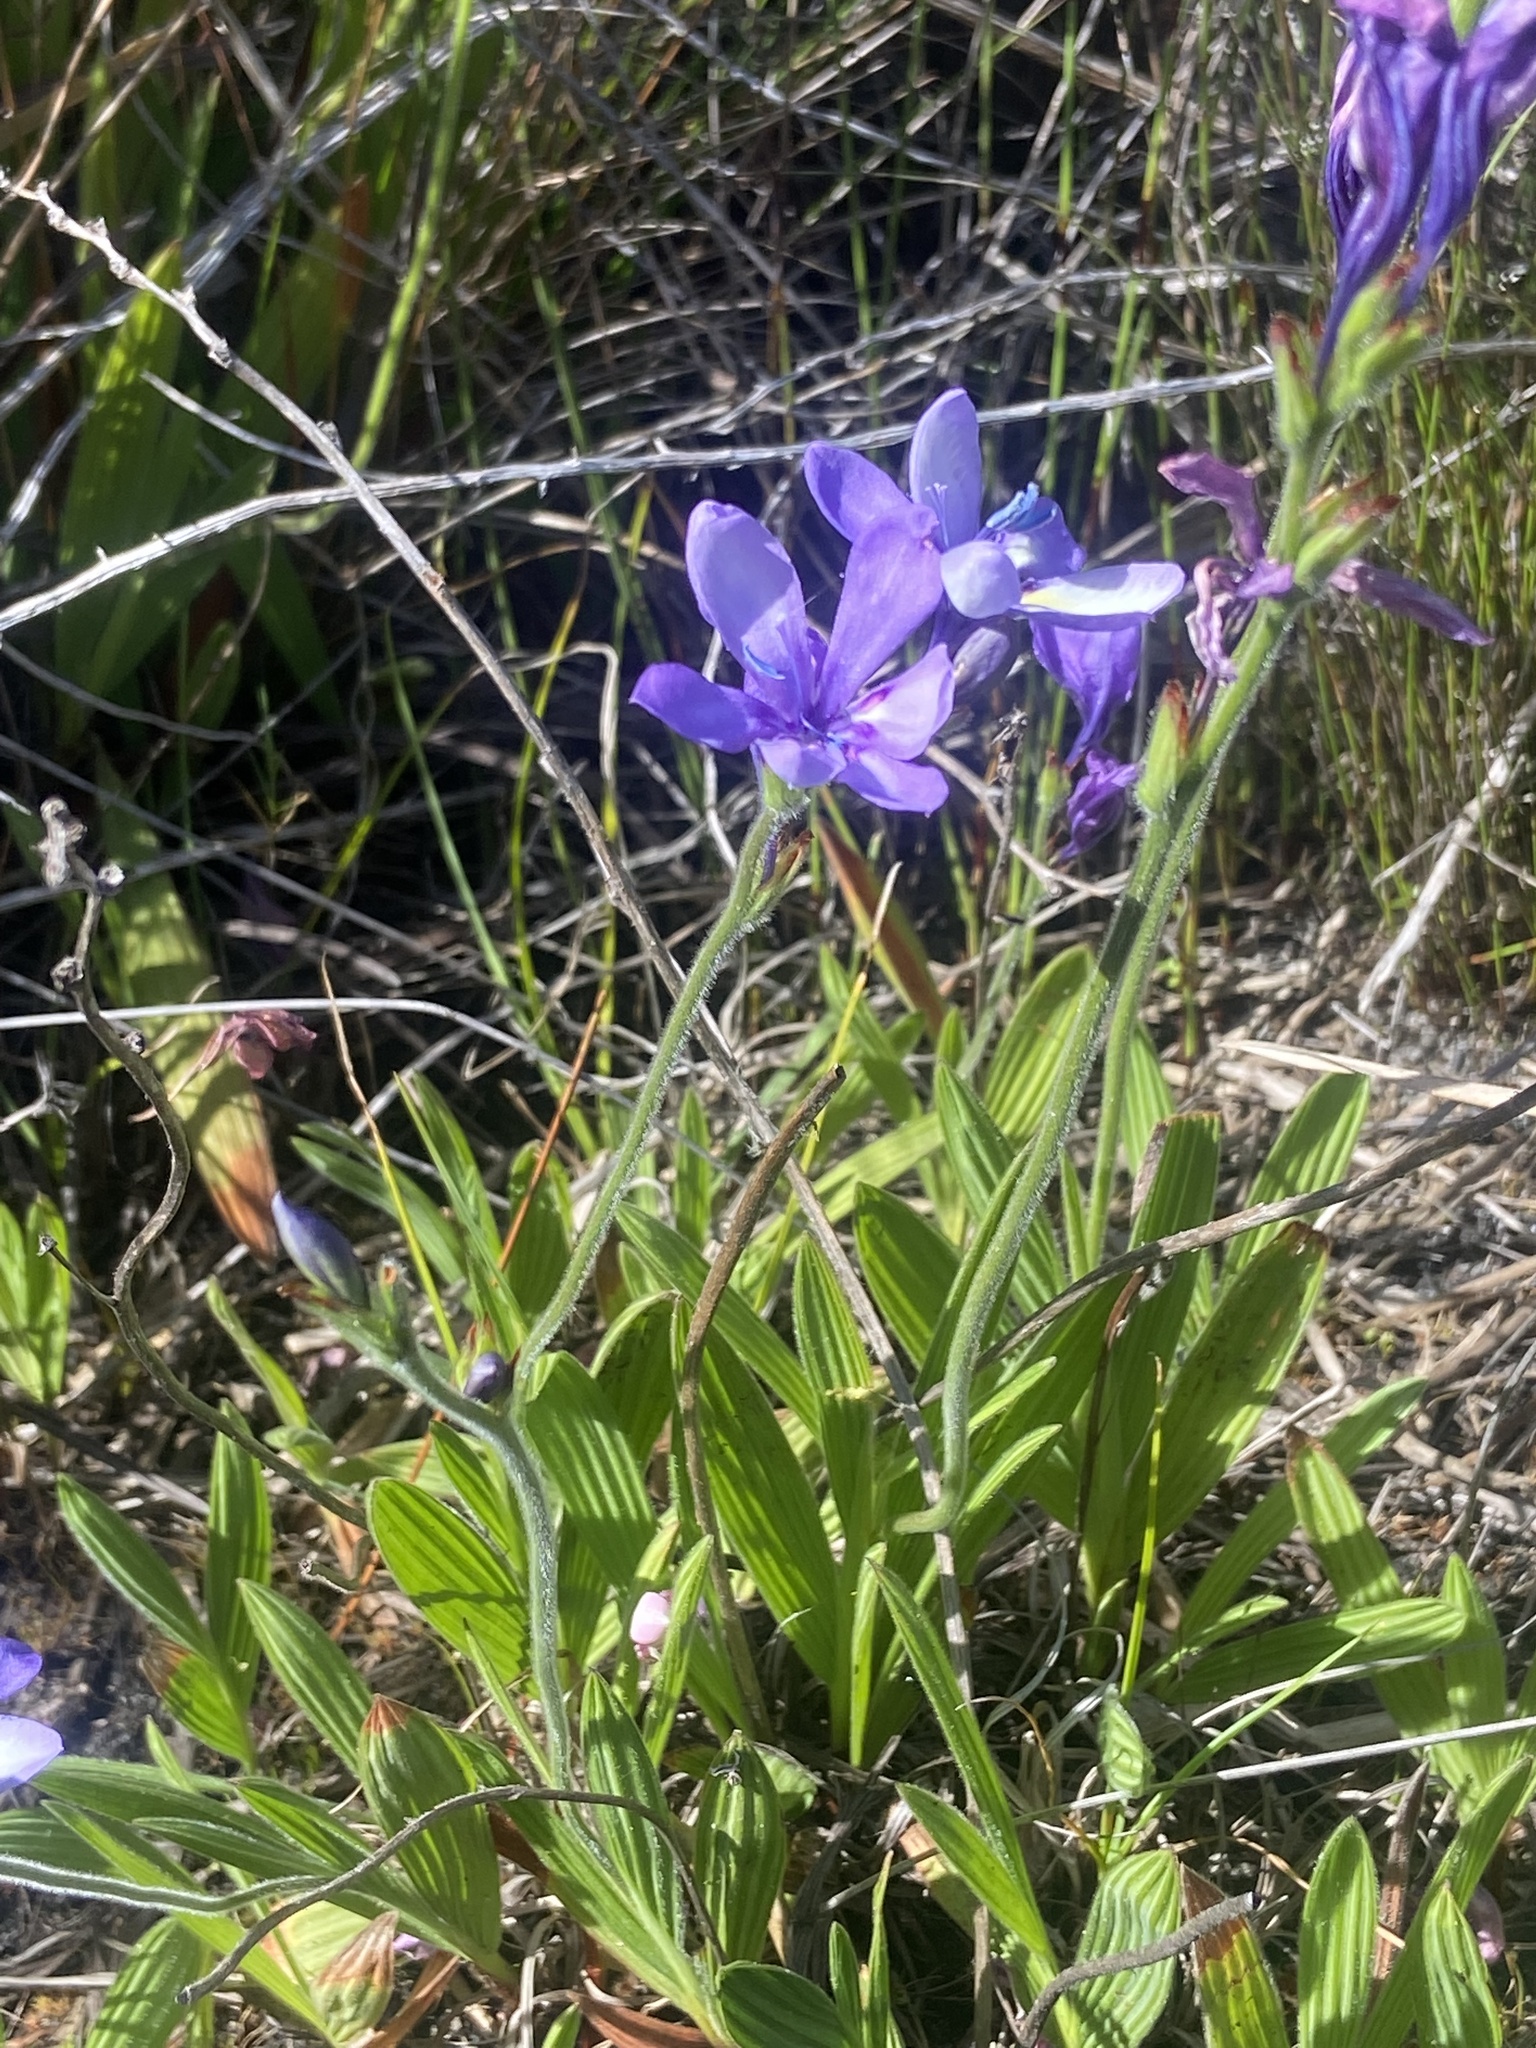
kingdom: Plantae
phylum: Tracheophyta
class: Liliopsida
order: Asparagales
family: Iridaceae
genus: Babiana
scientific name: Babiana nervosa
